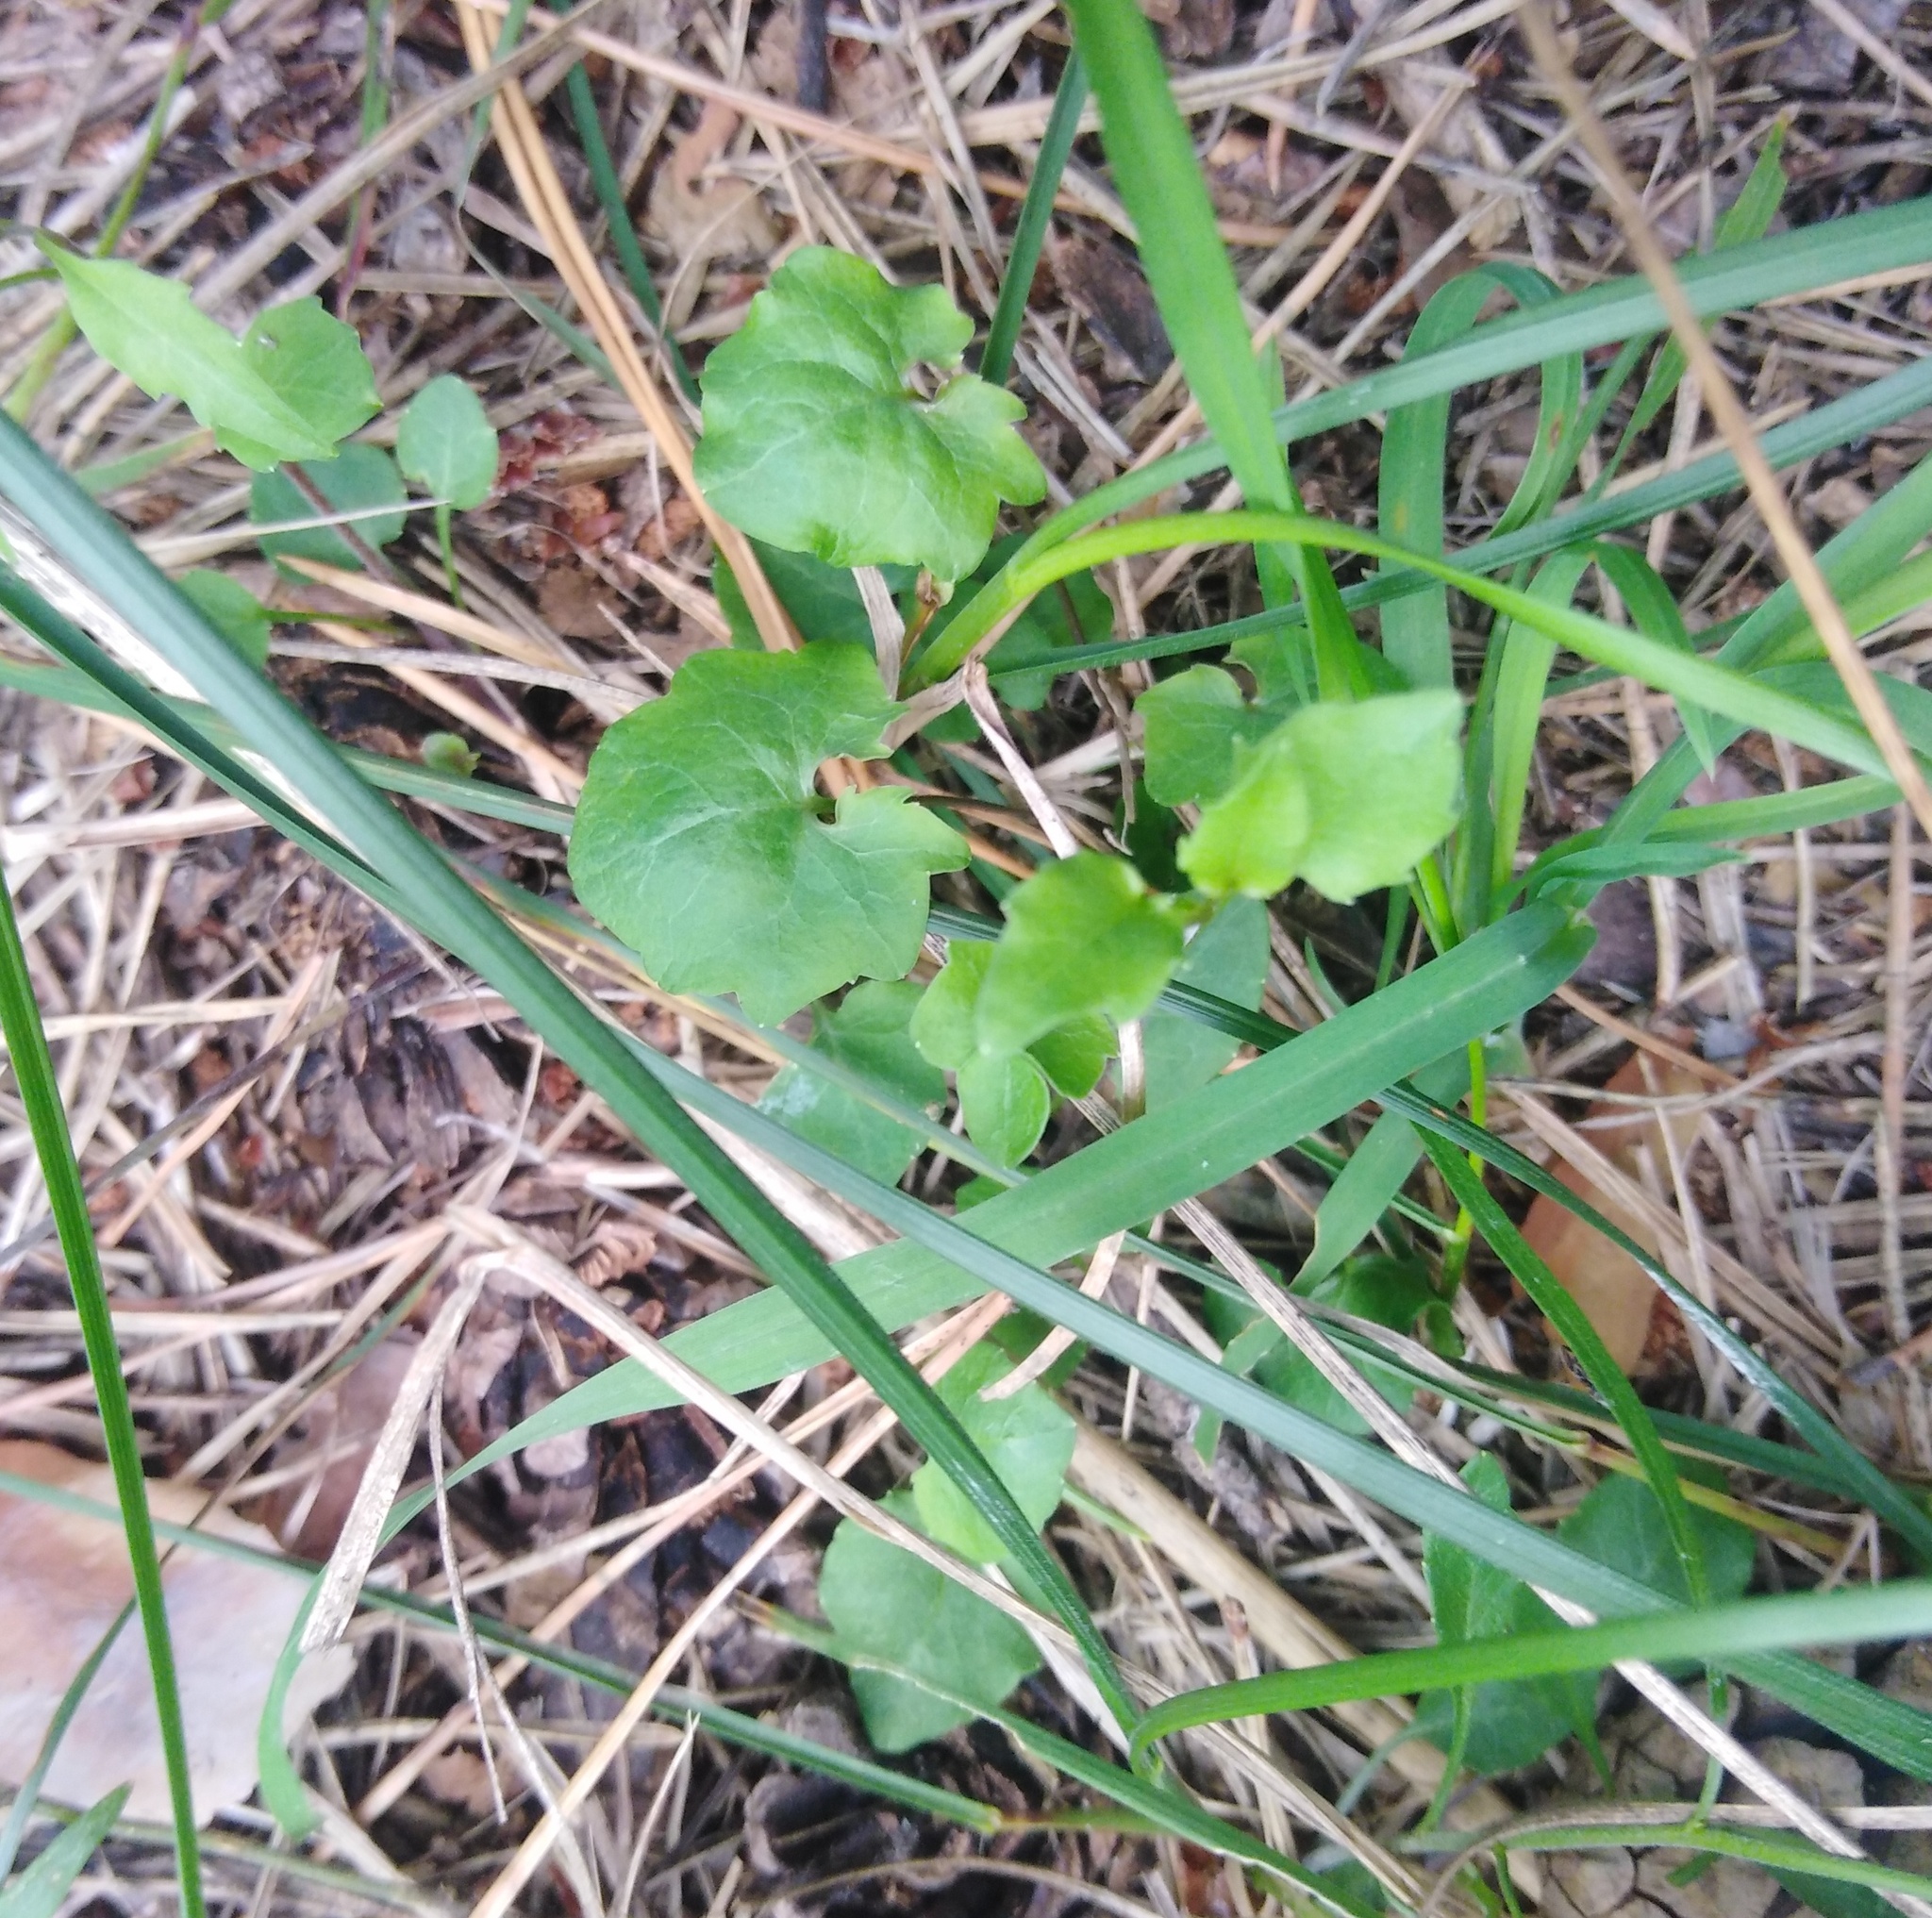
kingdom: Plantae
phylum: Tracheophyta
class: Magnoliopsida
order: Asterales
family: Campanulaceae
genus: Campanula
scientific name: Campanula rotundifolia
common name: Harebell
